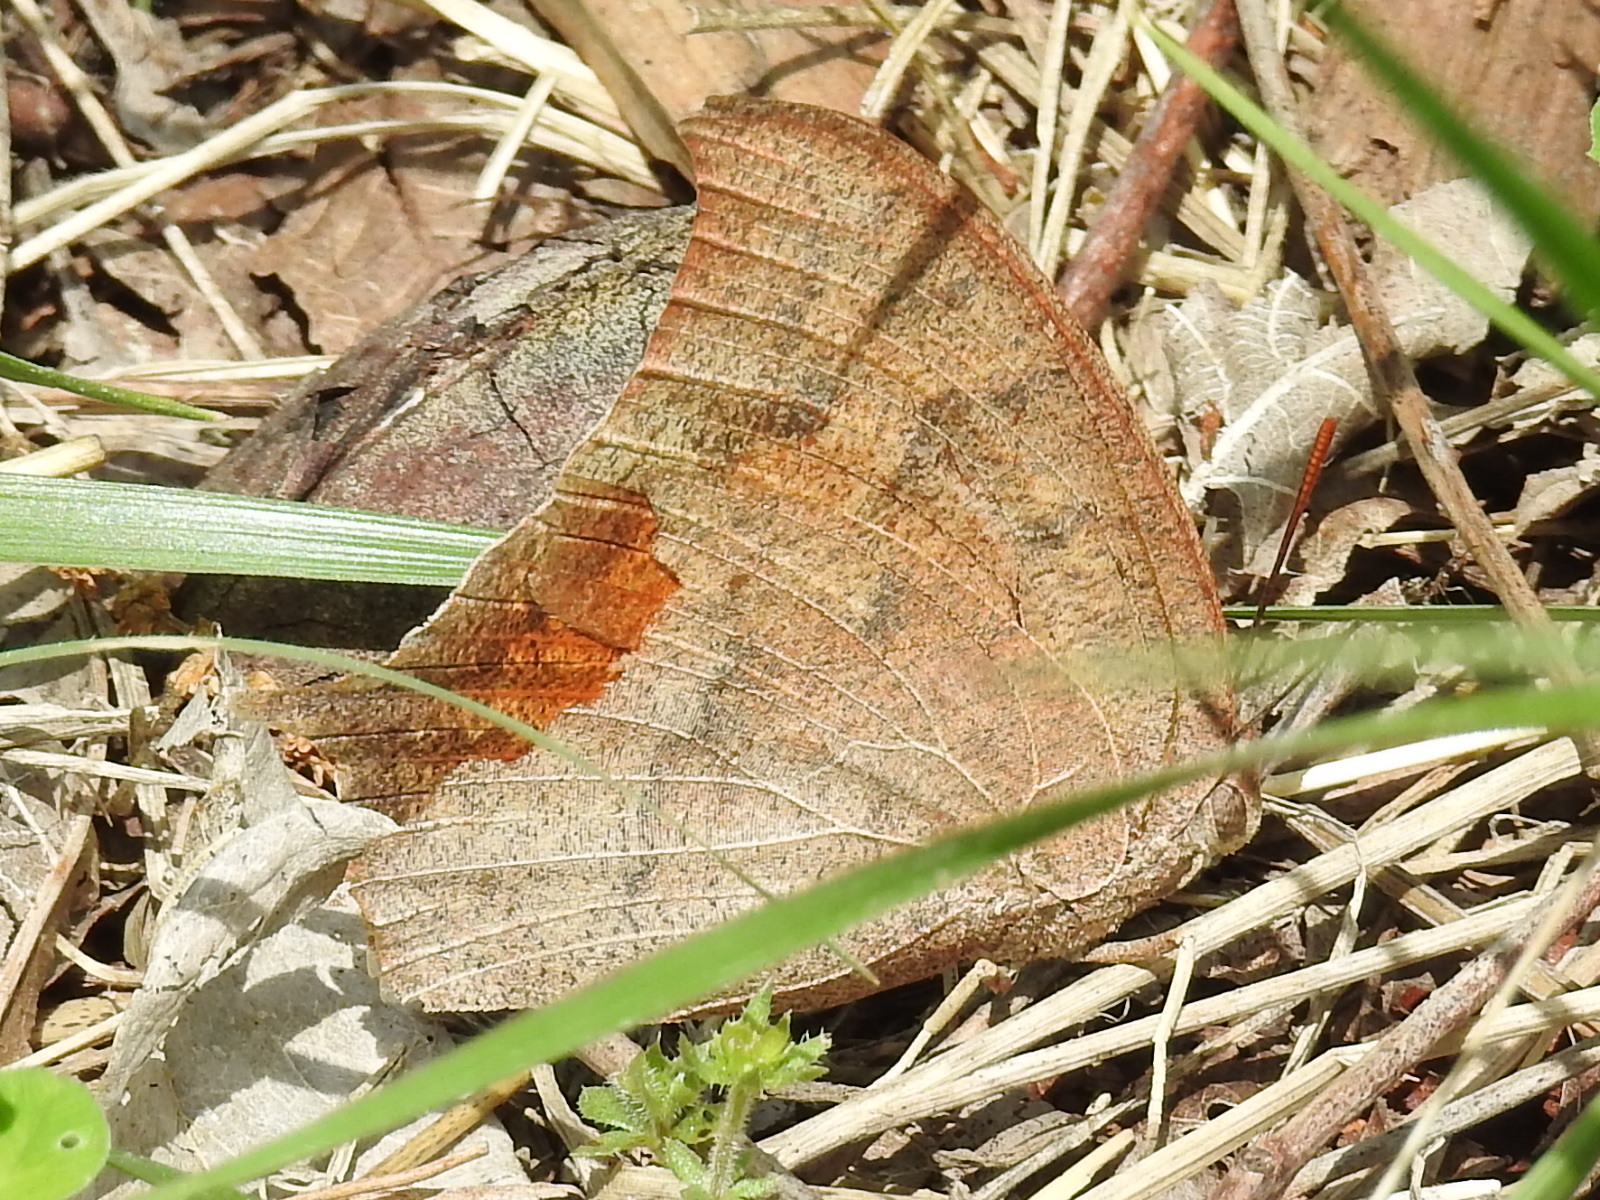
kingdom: Animalia
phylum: Arthropoda
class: Insecta
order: Lepidoptera
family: Nymphalidae
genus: Anaea
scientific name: Anaea andria
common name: Goatweed leafwing
